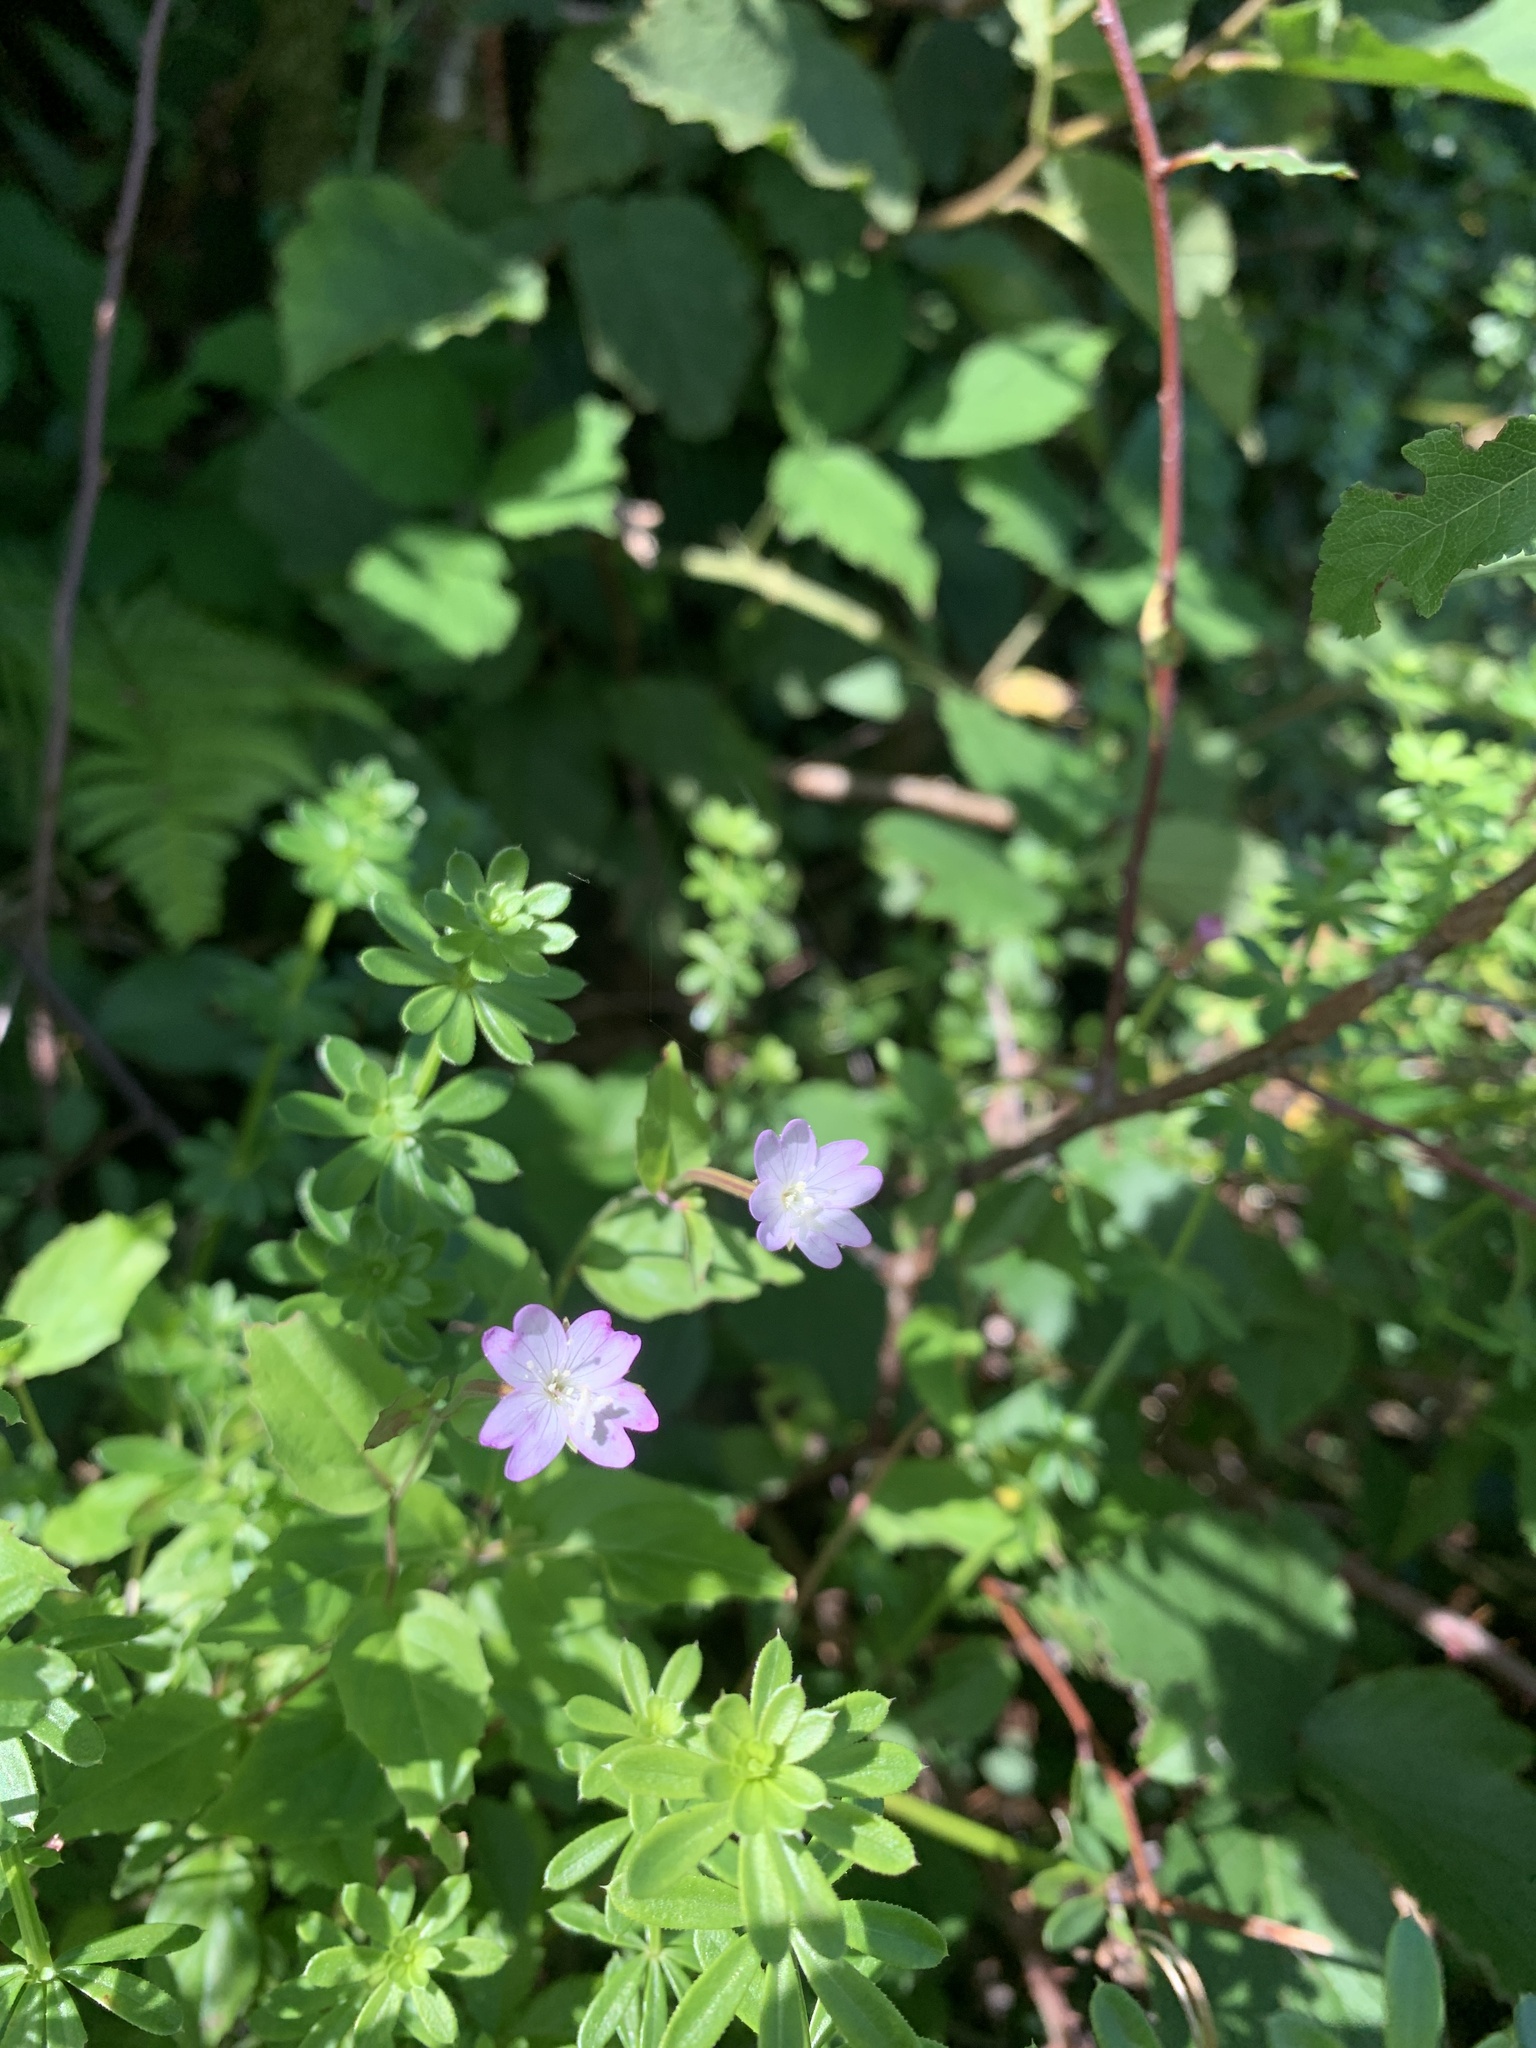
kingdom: Plantae
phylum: Tracheophyta
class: Magnoliopsida
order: Myrtales
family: Onagraceae
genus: Epilobium
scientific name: Epilobium montanum
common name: Broad-leaved willowherb
